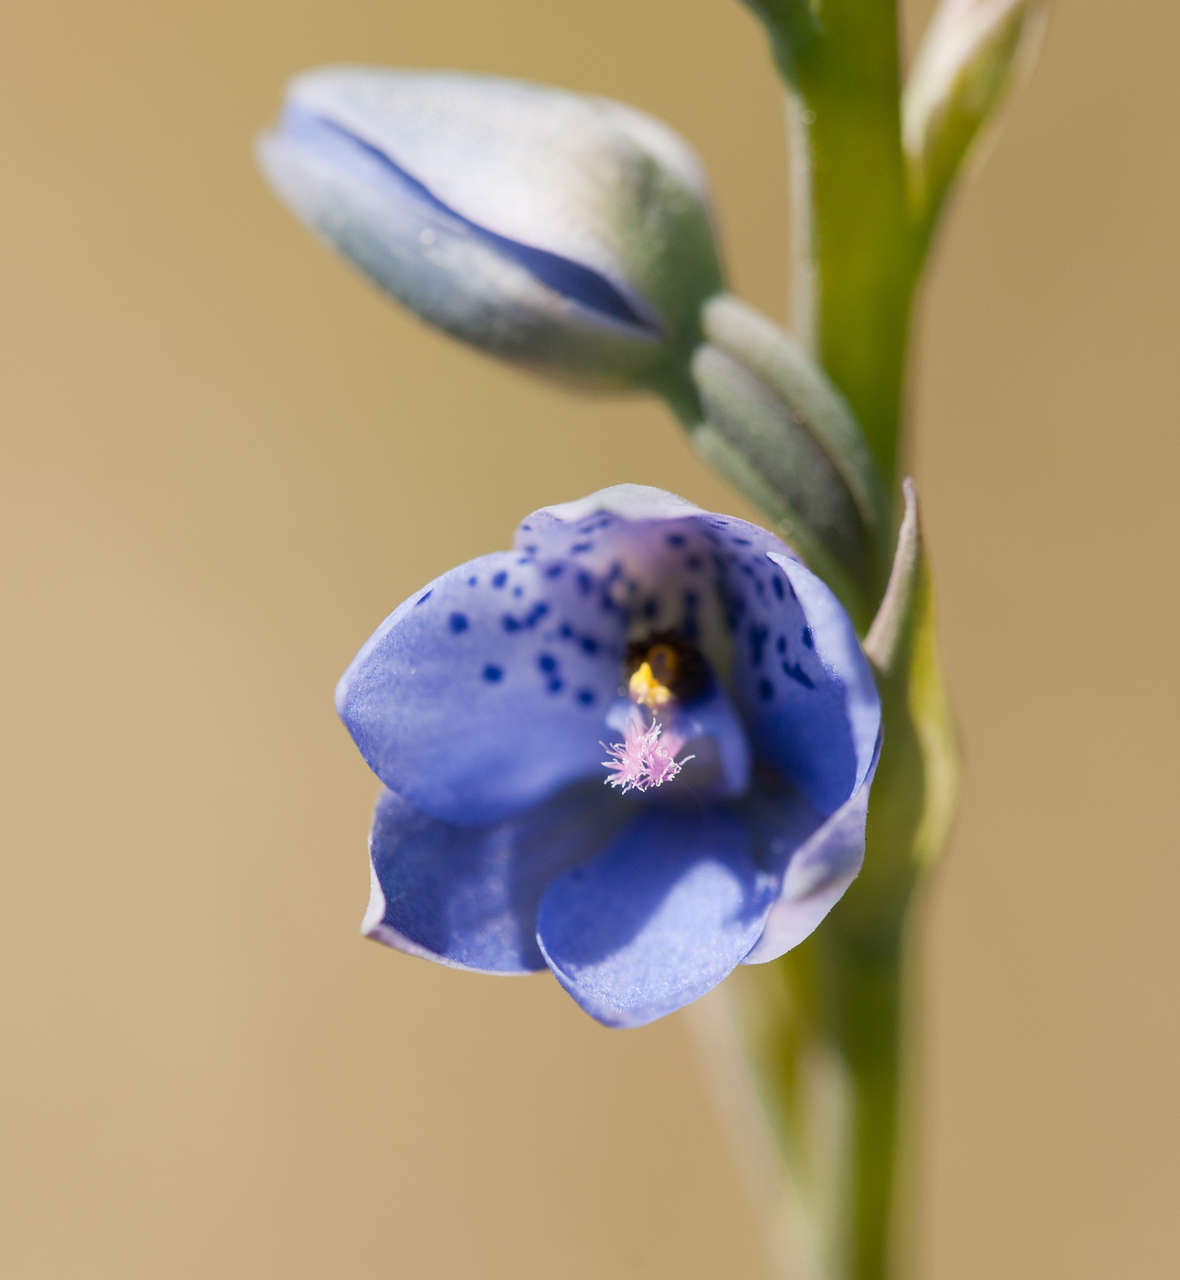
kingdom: Plantae
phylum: Tracheophyta
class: Liliopsida
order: Asparagales
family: Orchidaceae
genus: Thelymitra
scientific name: Thelymitra ixioides
